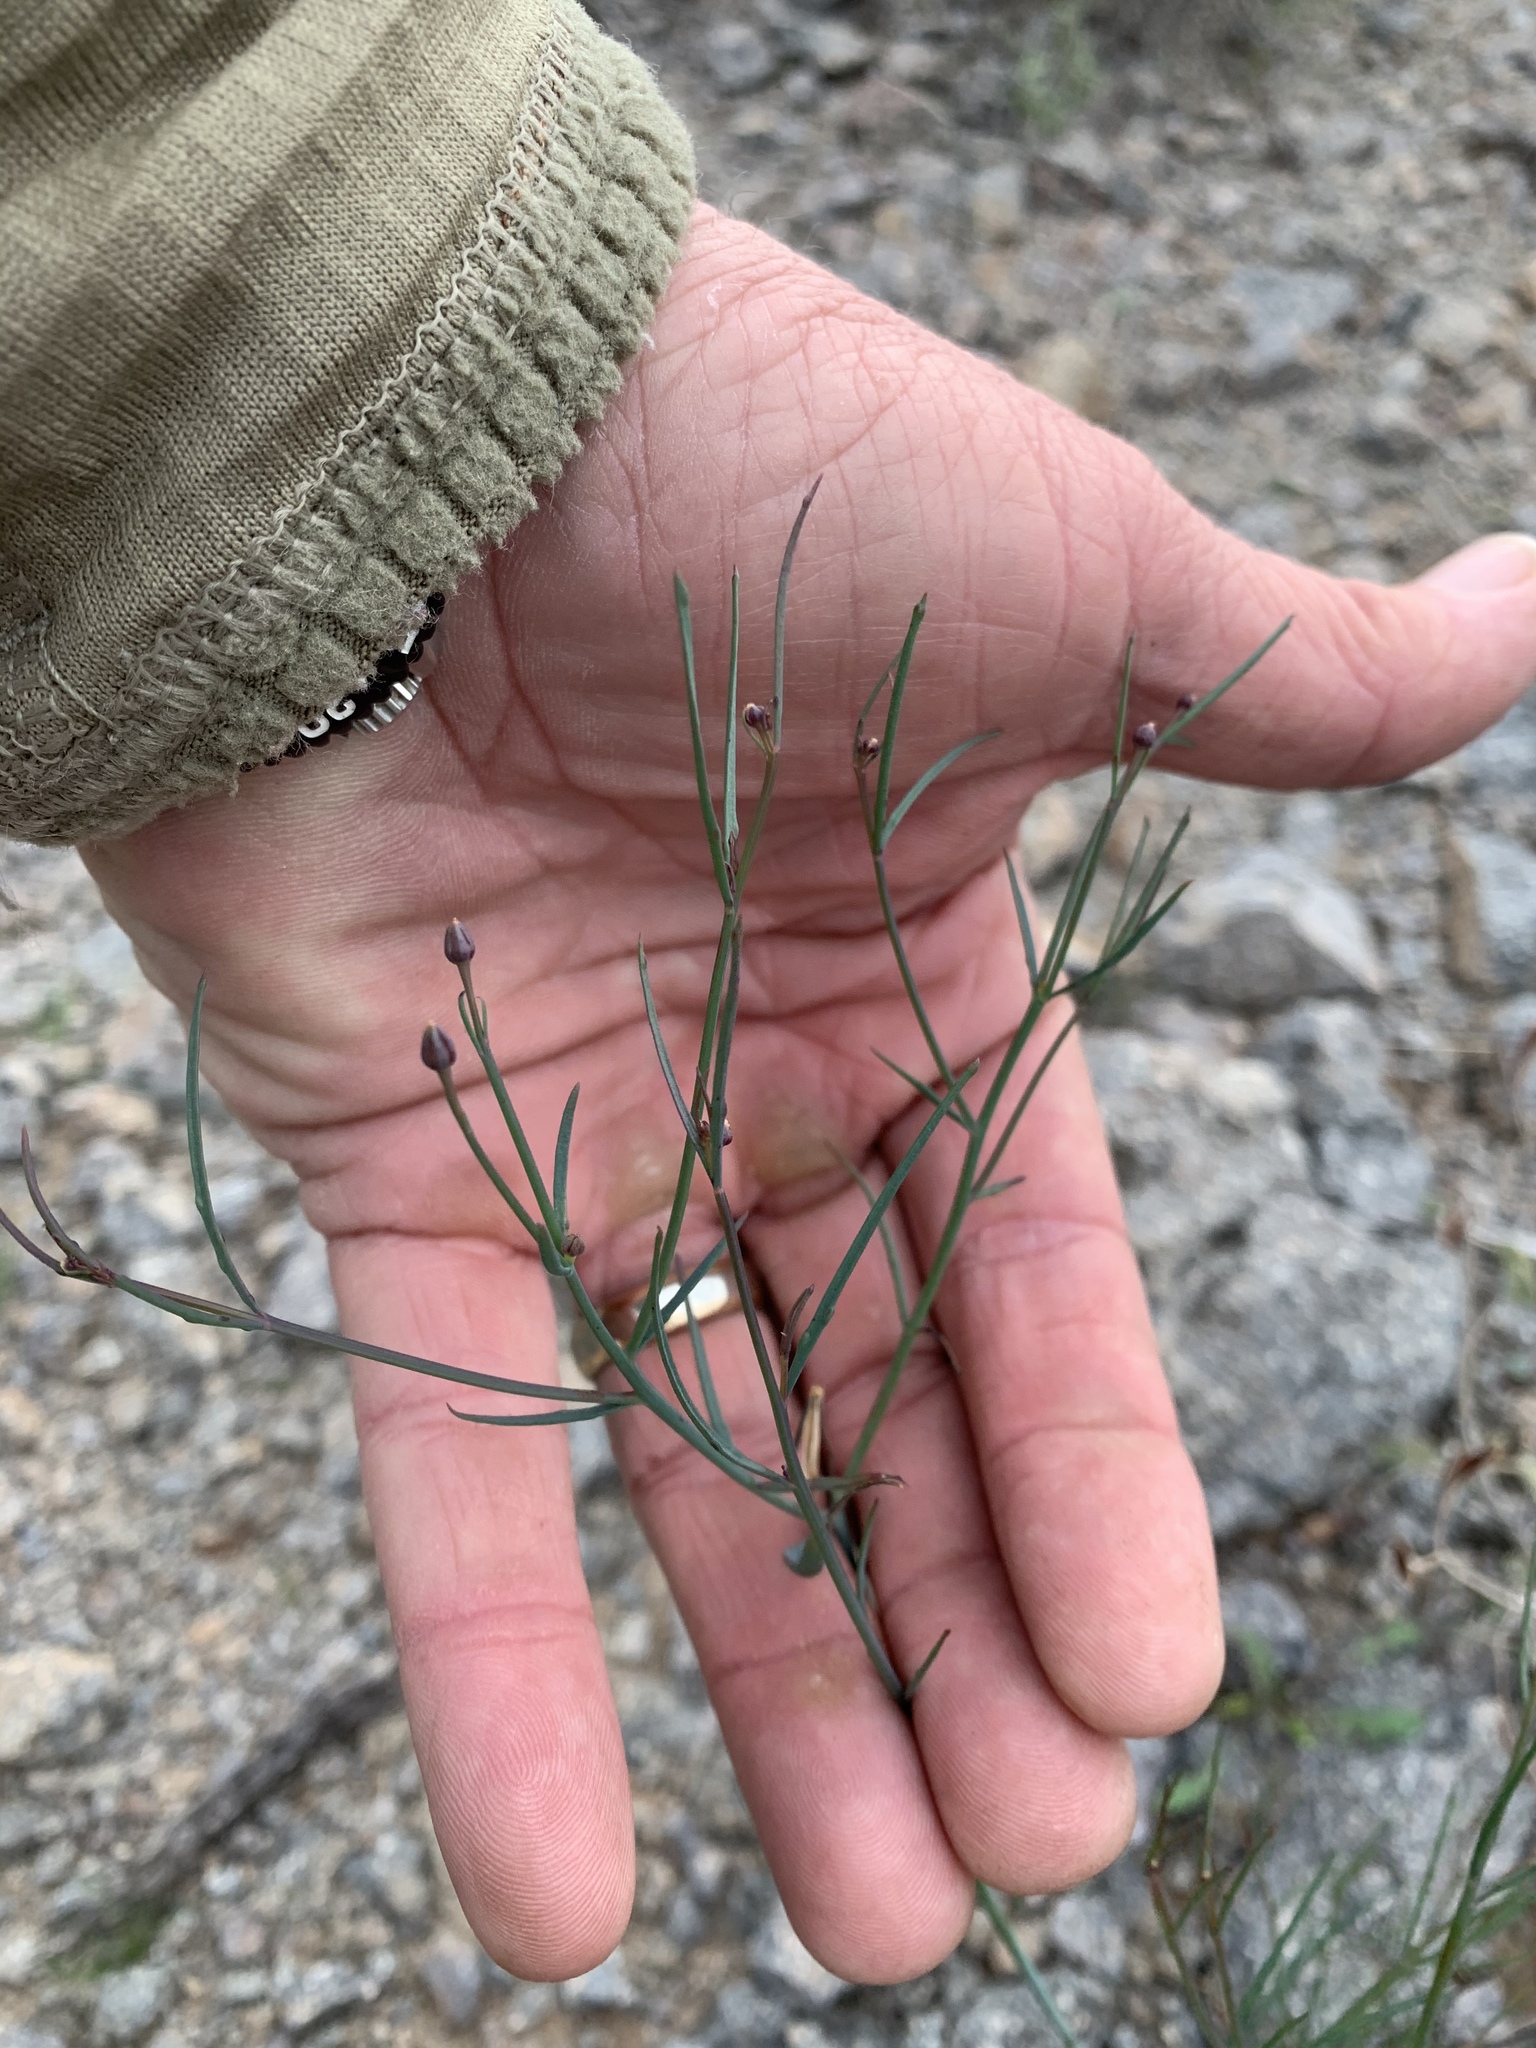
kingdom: Plantae
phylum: Tracheophyta
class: Magnoliopsida
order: Asterales
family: Asteraceae
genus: Porophyllum
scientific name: Porophyllum gracile
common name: Odora
